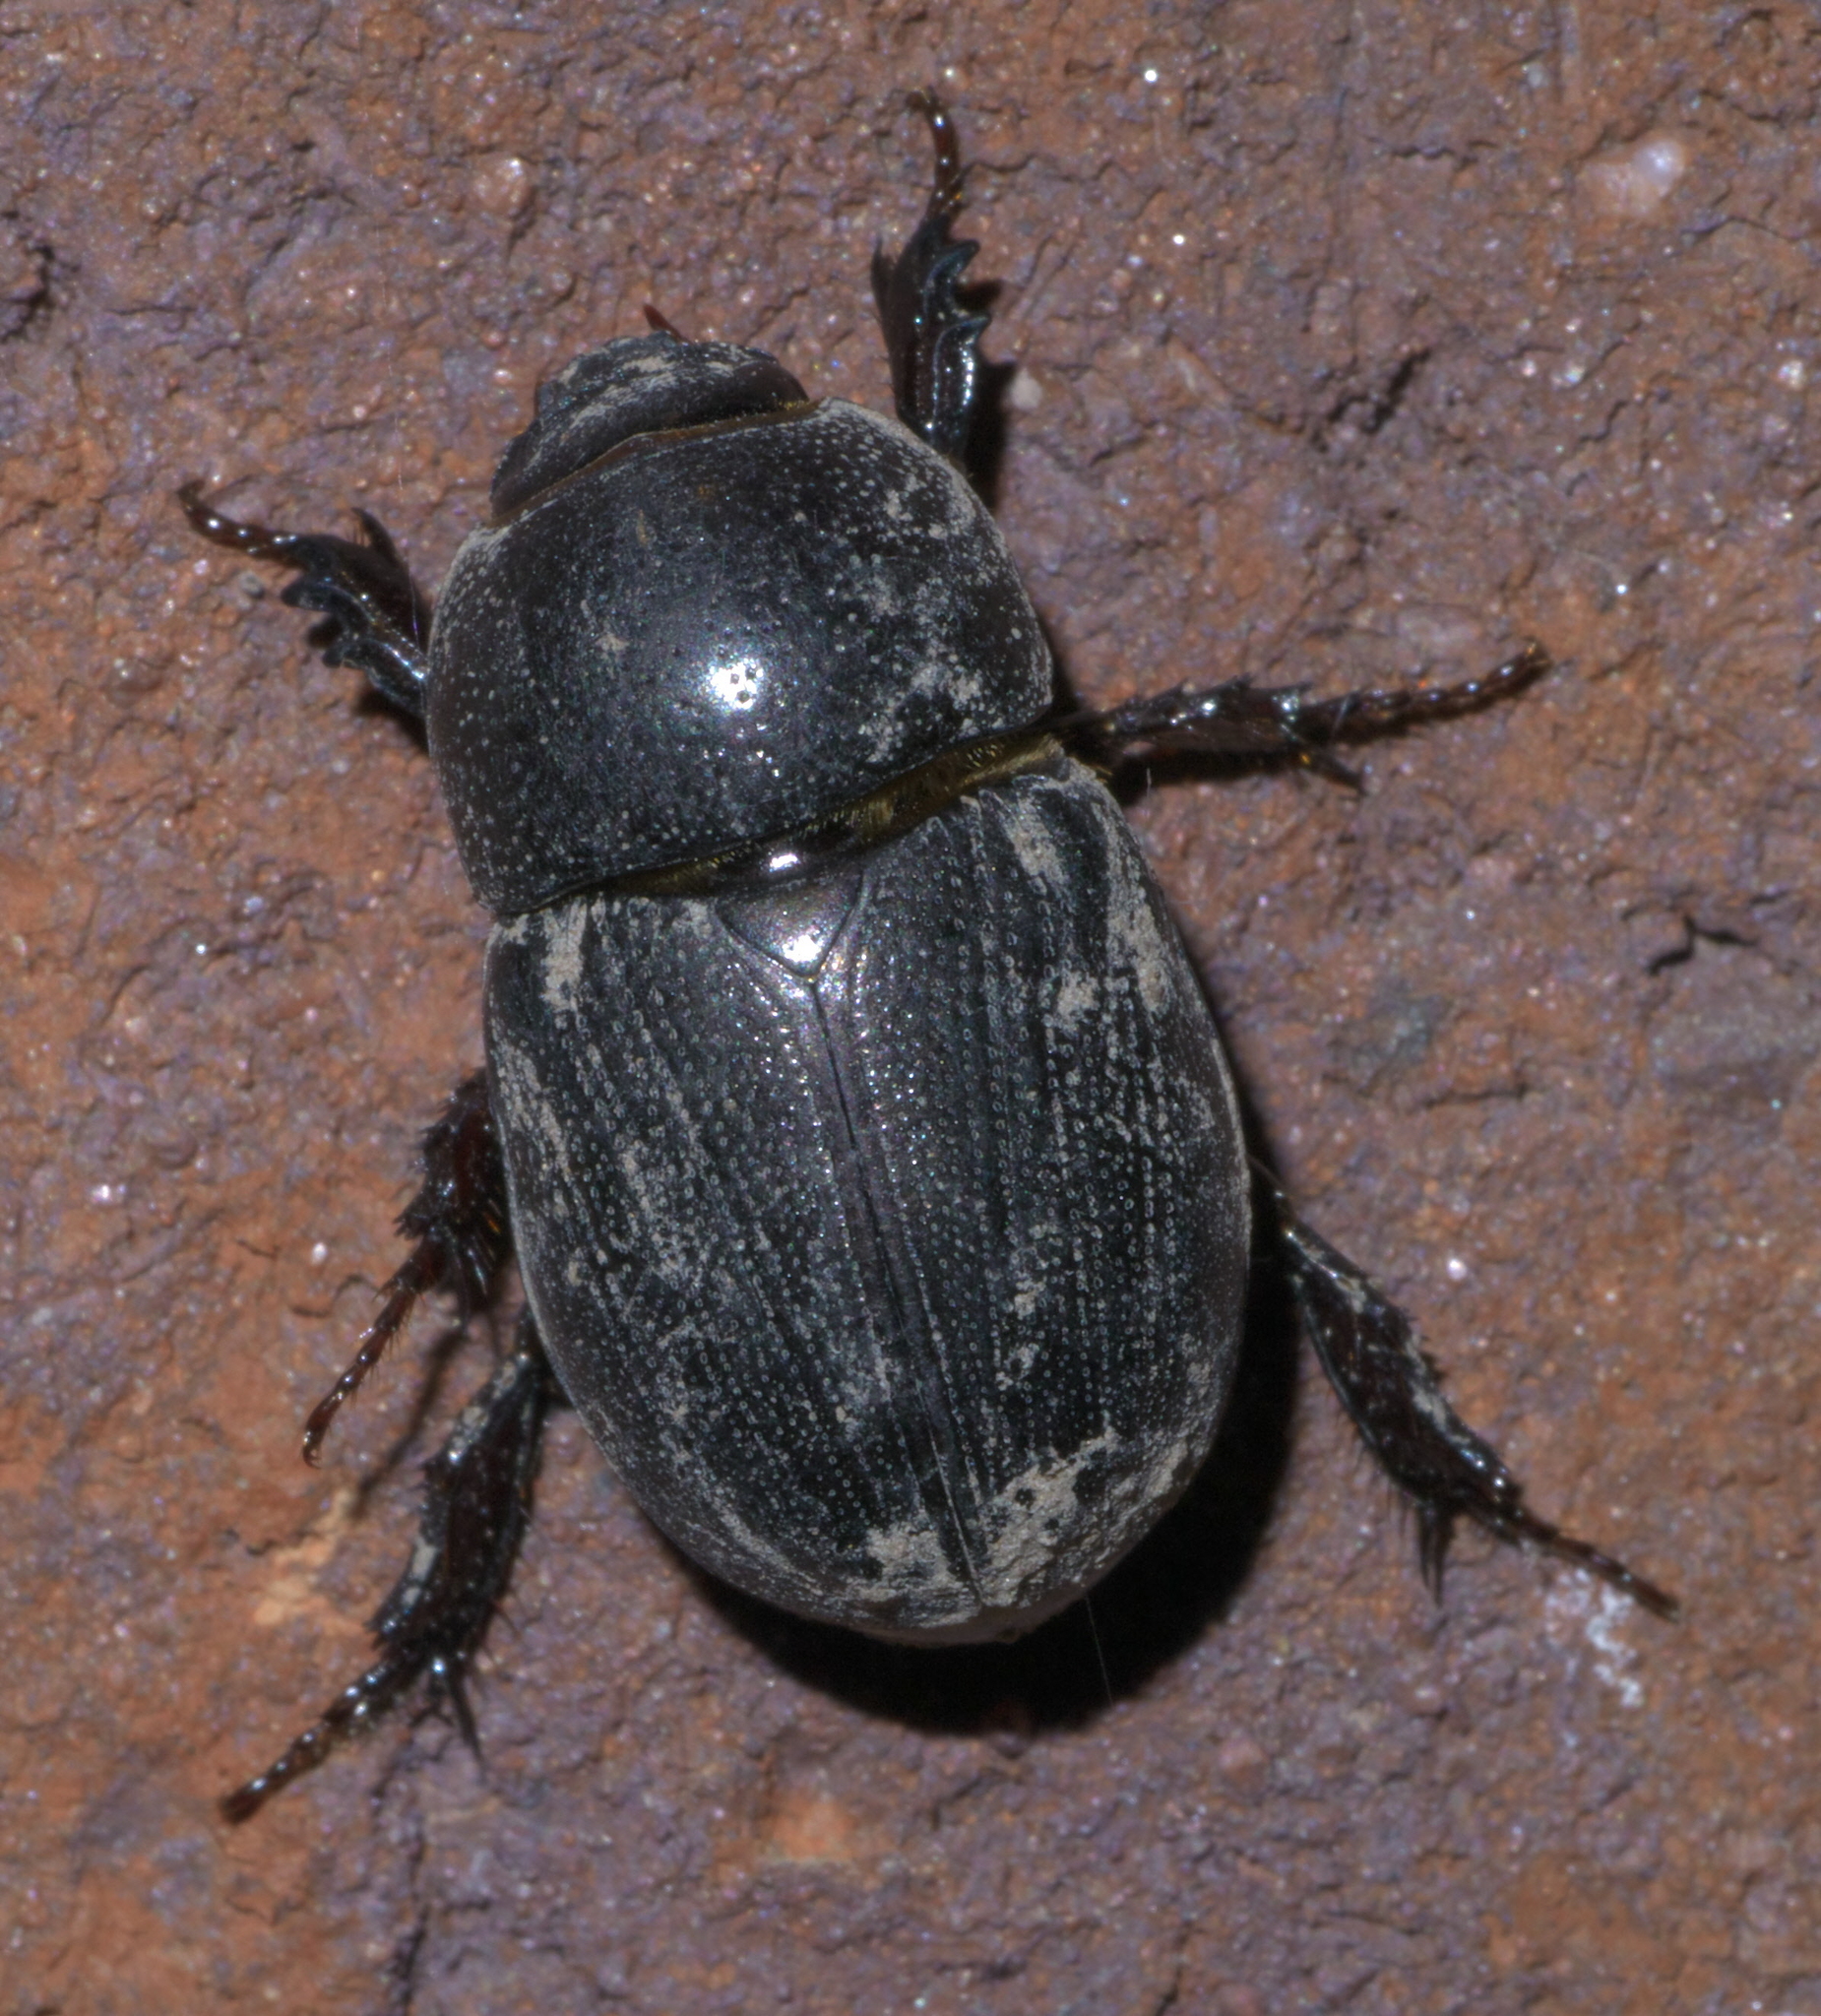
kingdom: Animalia
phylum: Arthropoda
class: Insecta
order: Coleoptera
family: Scarabaeidae
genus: Euetheola
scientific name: Euetheola humilis
